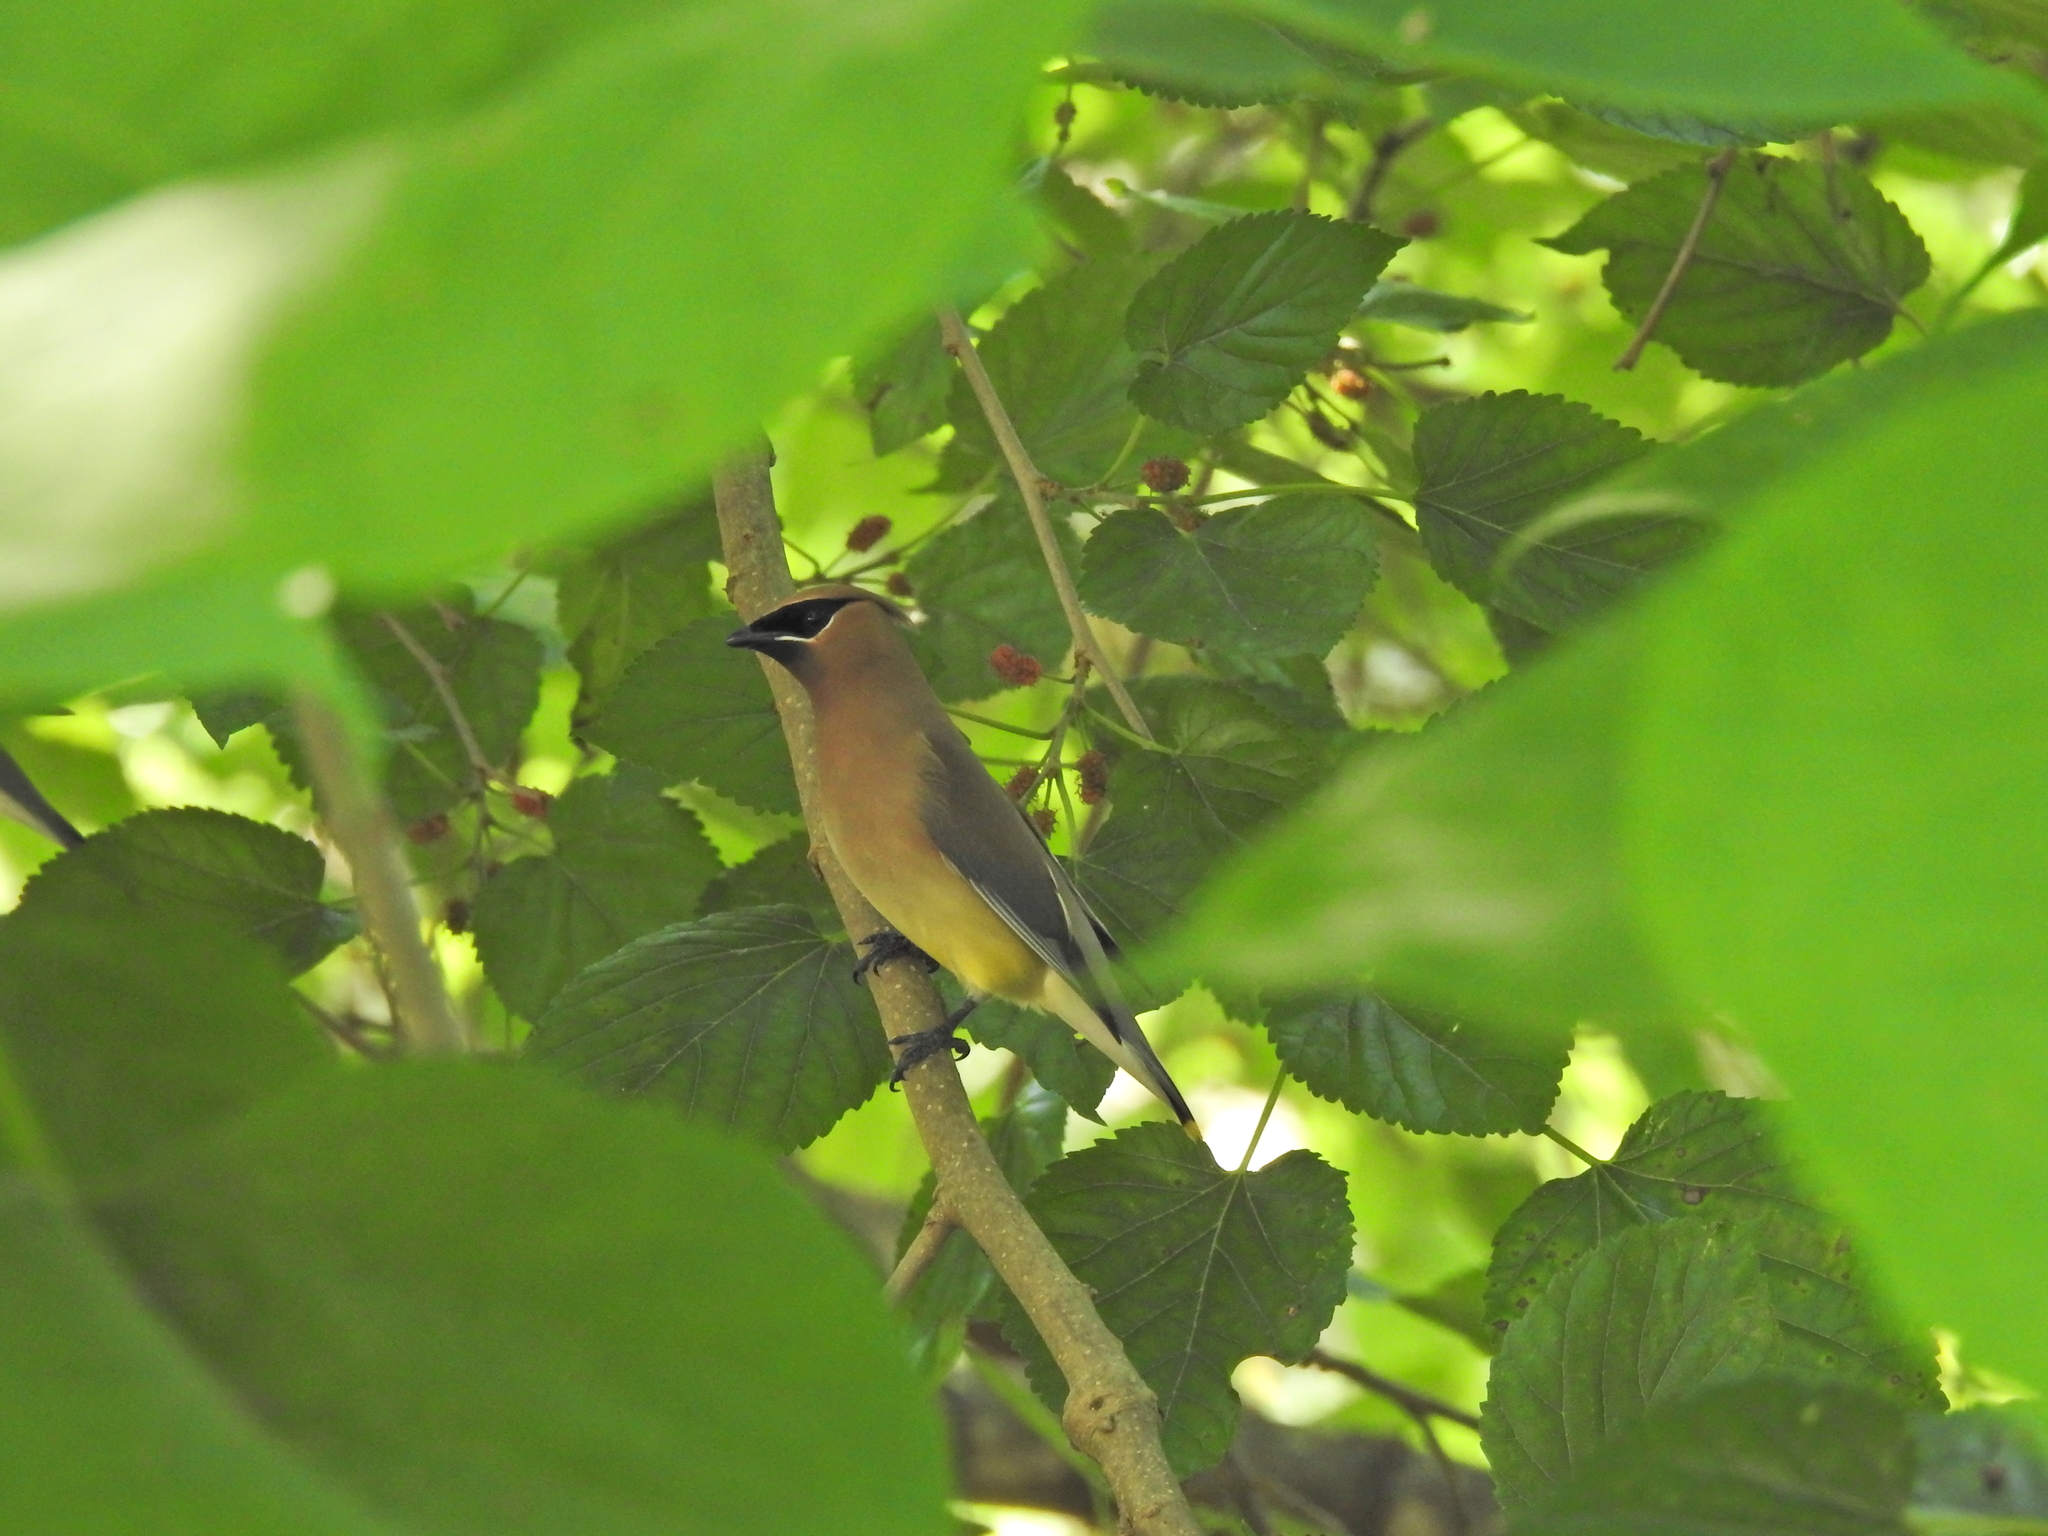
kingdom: Animalia
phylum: Chordata
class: Aves
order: Passeriformes
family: Bombycillidae
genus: Bombycilla
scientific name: Bombycilla cedrorum
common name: Cedar waxwing
